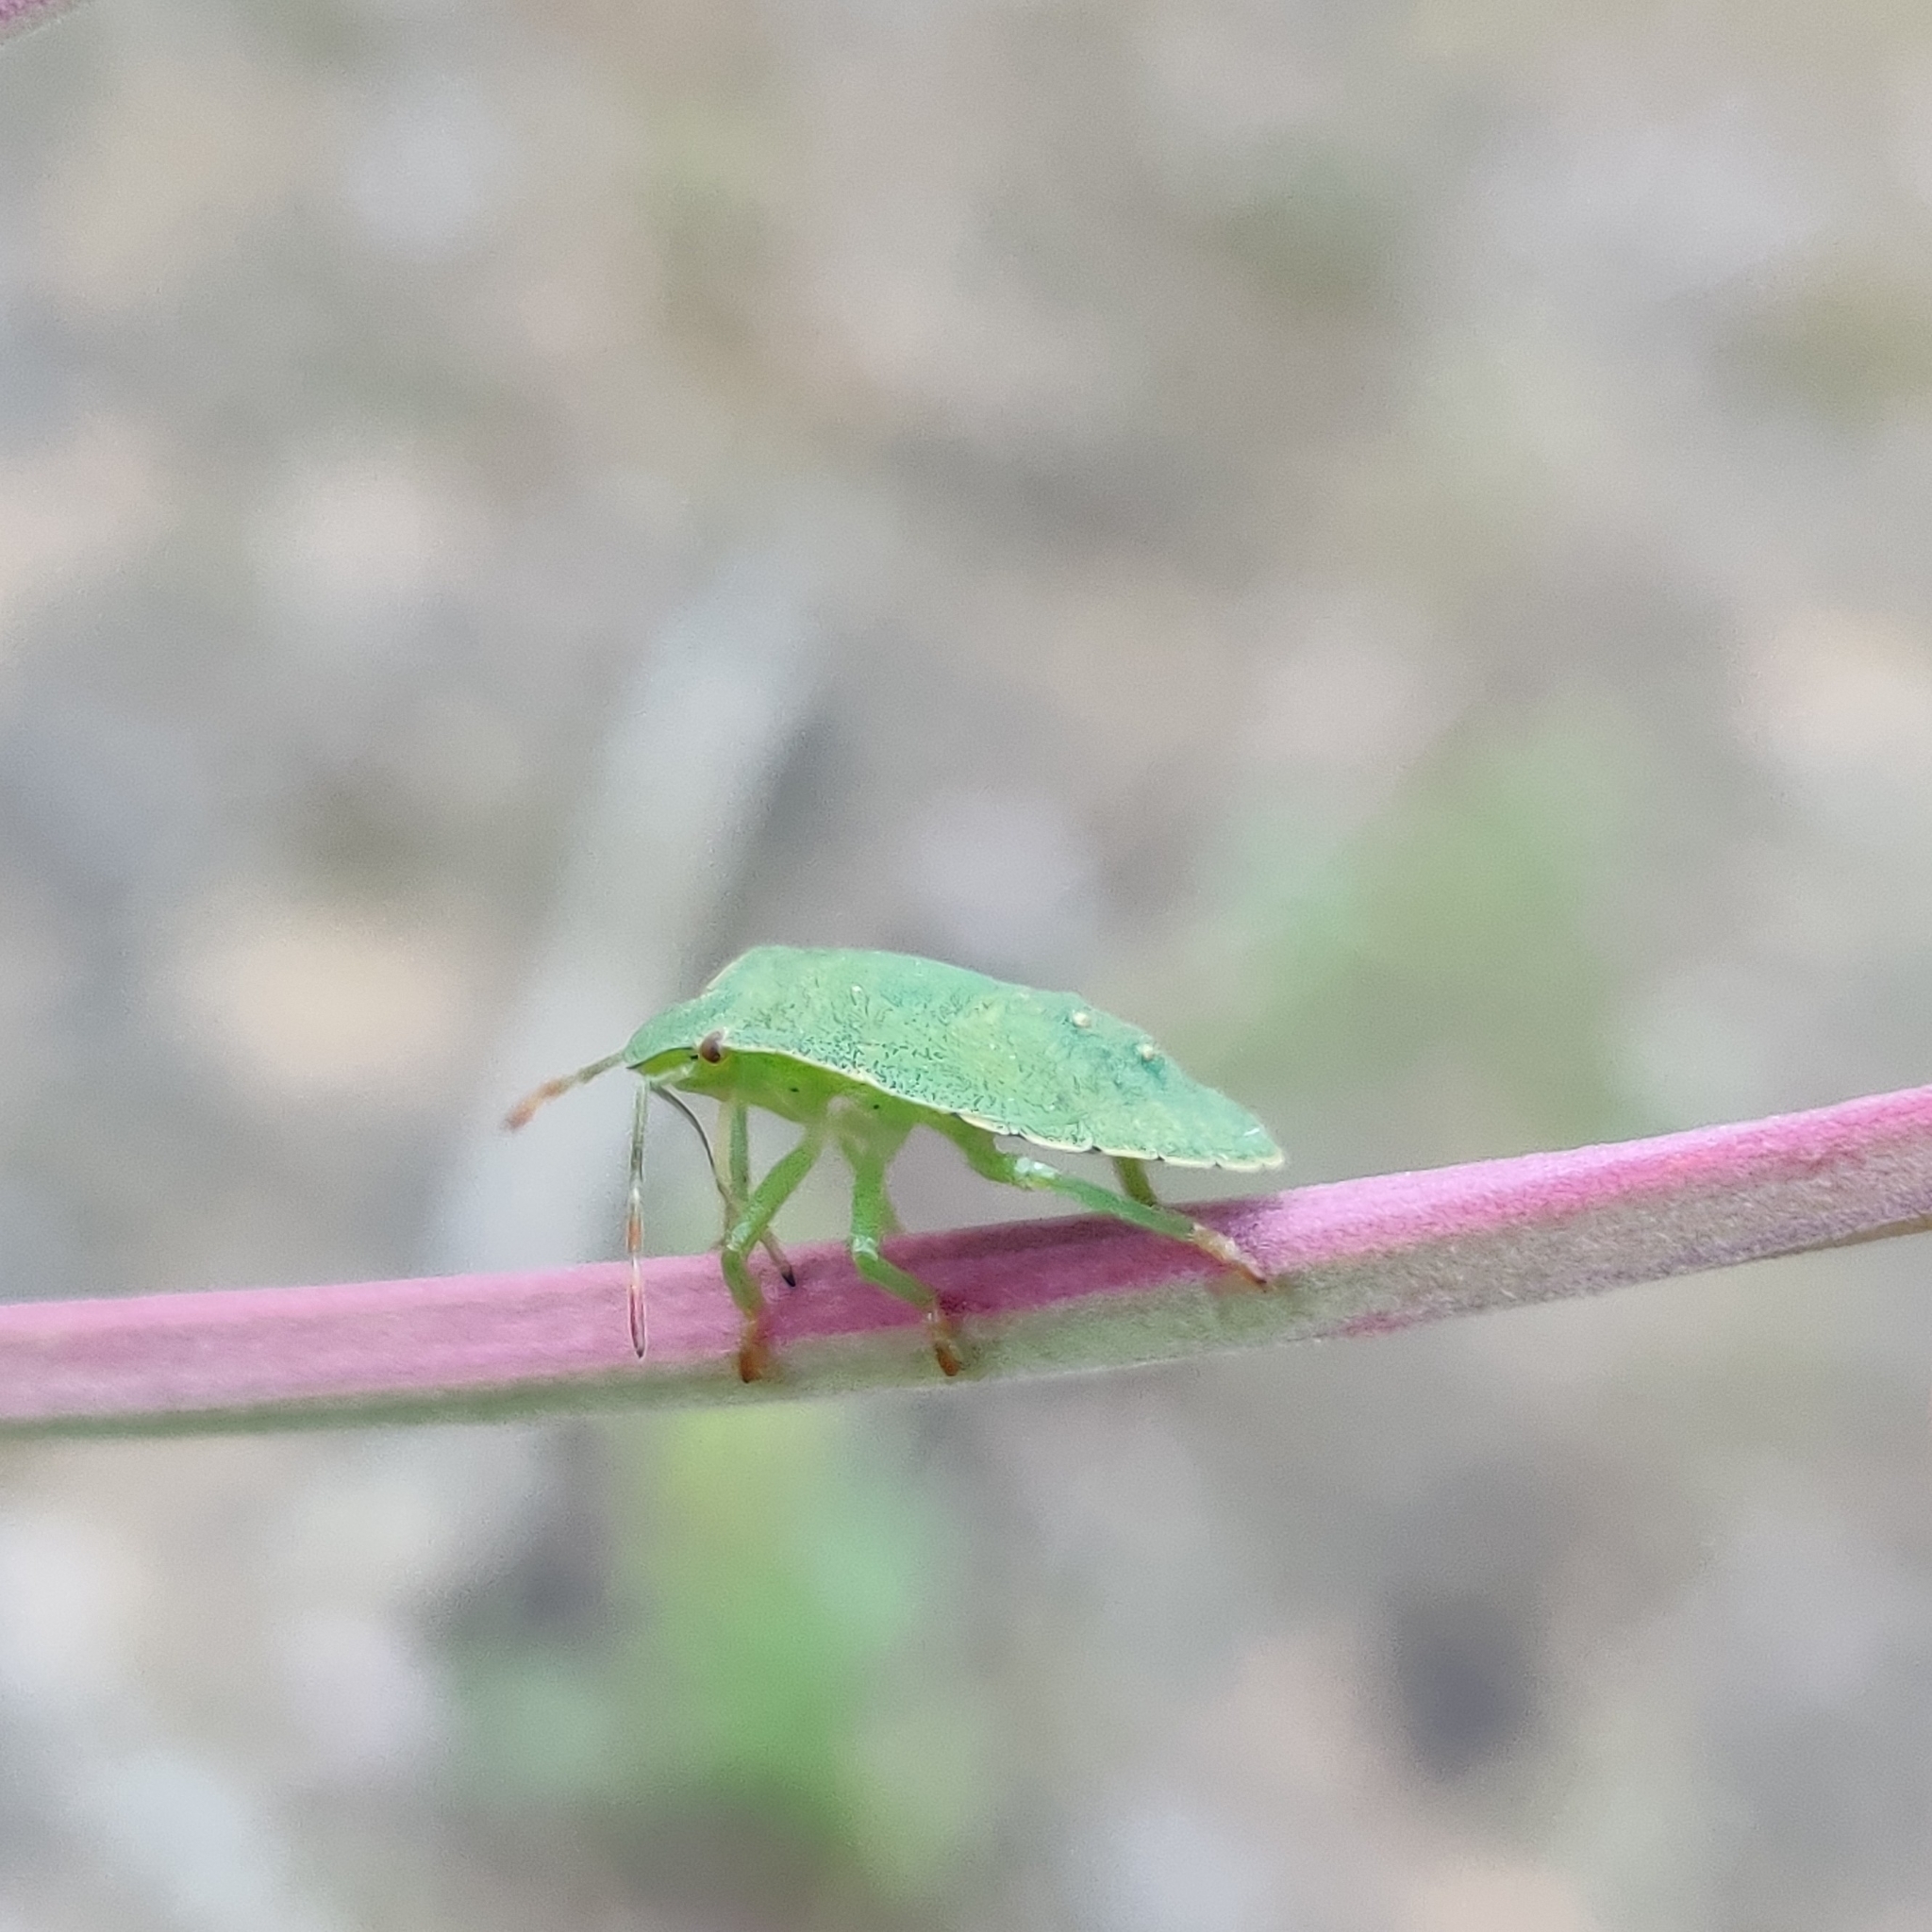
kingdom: Animalia
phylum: Arthropoda
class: Insecta
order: Hemiptera
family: Pentatomidae
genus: Palomena
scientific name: Palomena prasina
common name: Green shieldbug
